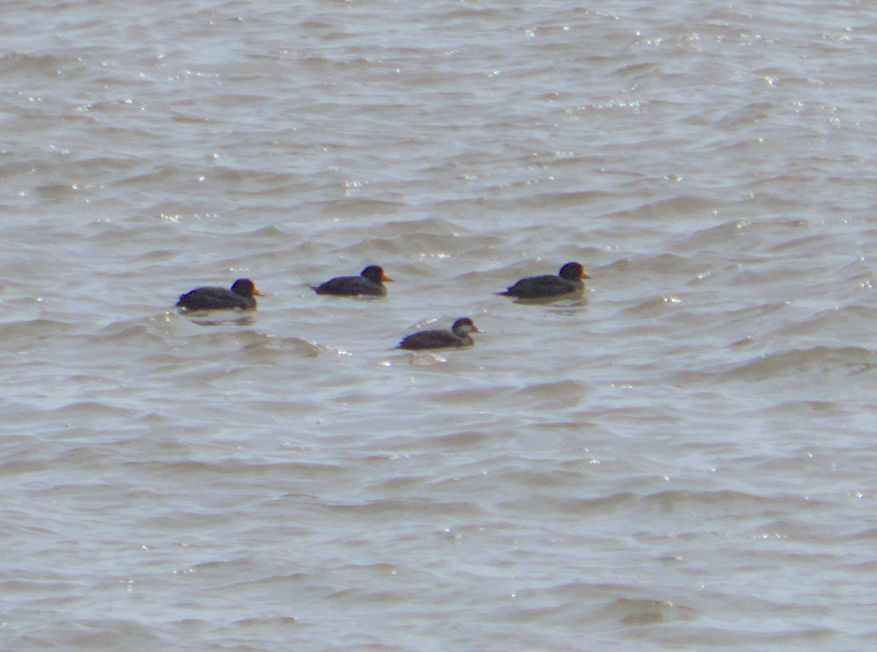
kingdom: Animalia
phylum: Chordata
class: Aves
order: Anseriformes
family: Anatidae
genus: Melanitta
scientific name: Melanitta americana
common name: Black scoter
